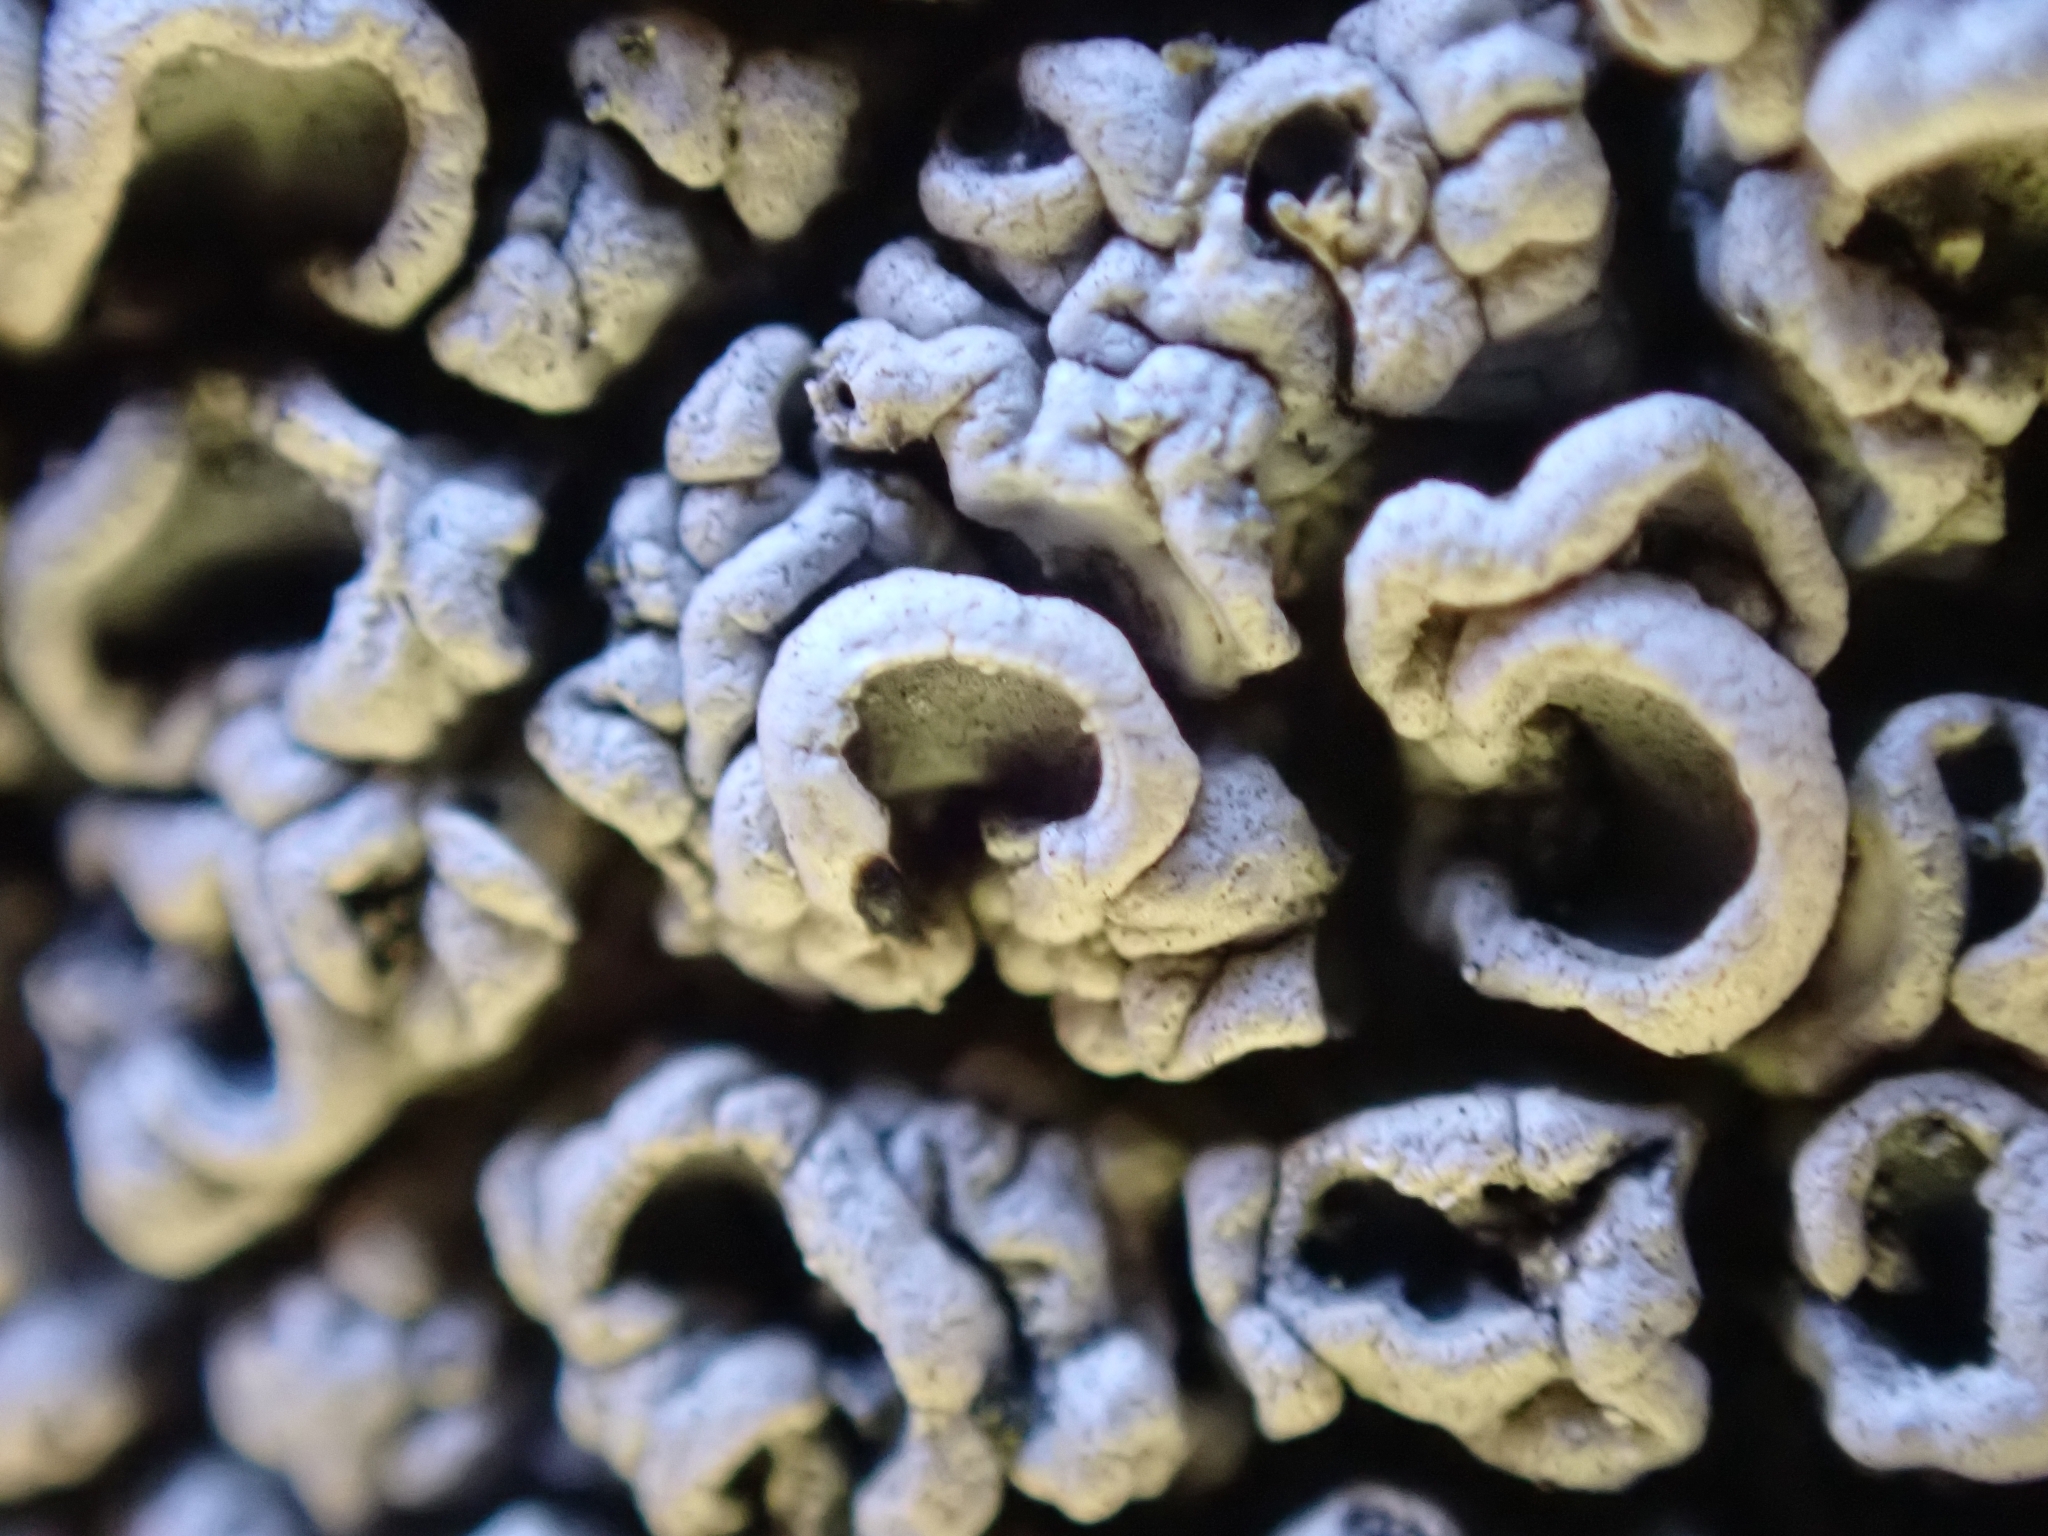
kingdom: Fungi
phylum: Ascomycota
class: Lecanoromycetes
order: Ostropales
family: Graphidaceae
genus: Diploschistes
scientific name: Diploschistes scruposus
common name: Crater lichen
